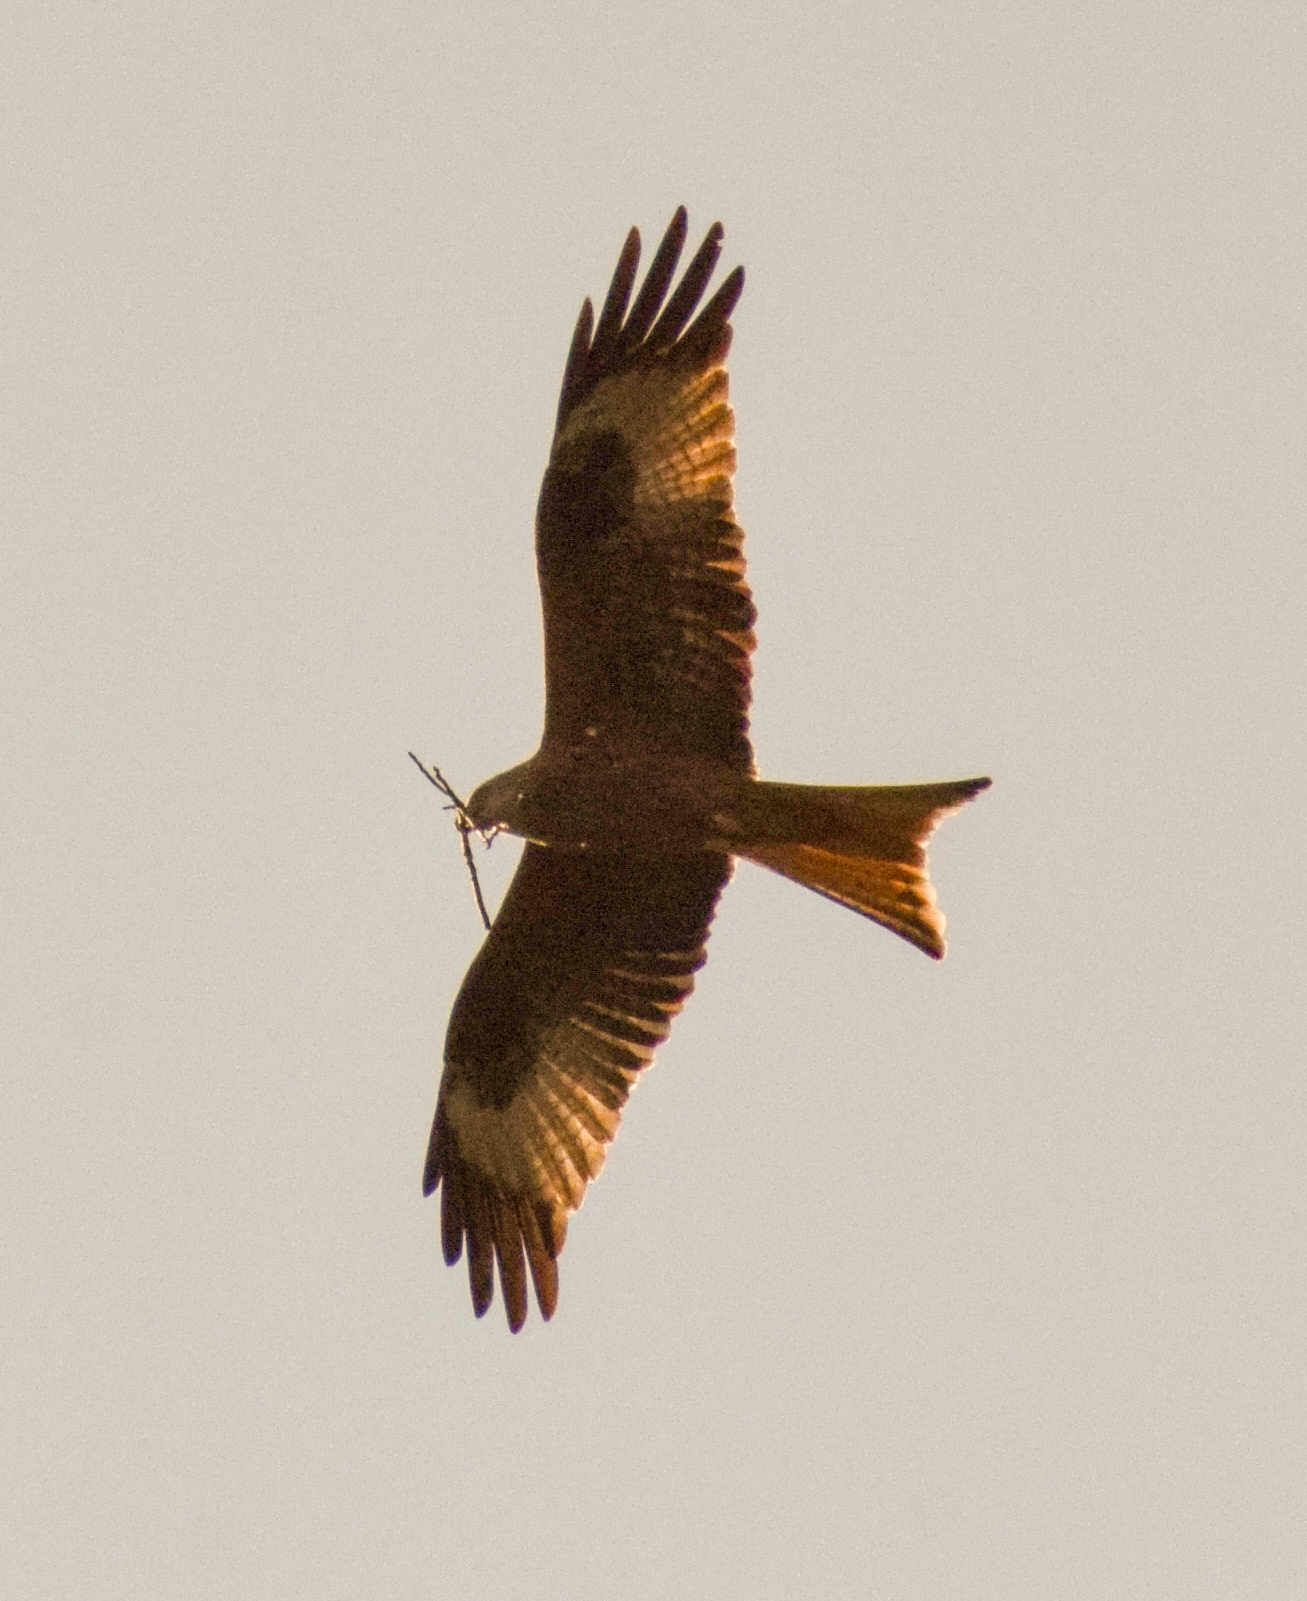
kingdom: Animalia
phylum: Chordata
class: Aves
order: Accipitriformes
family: Accipitridae
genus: Milvus
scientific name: Milvus milvus
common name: Red kite
